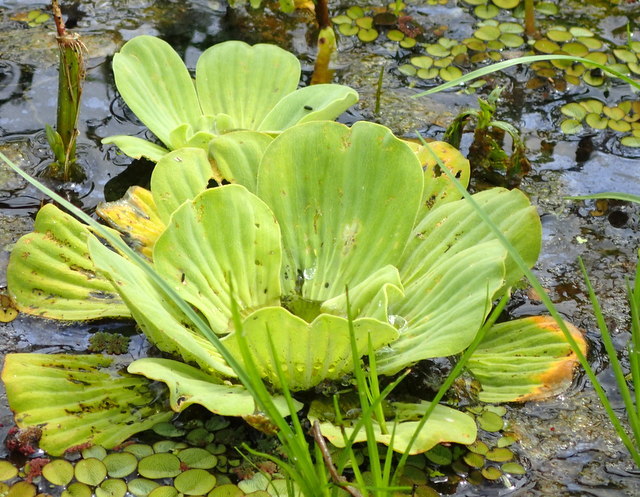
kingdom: Plantae
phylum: Tracheophyta
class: Liliopsida
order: Alismatales
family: Araceae
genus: Pistia
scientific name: Pistia stratiotes
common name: Water lettuce
